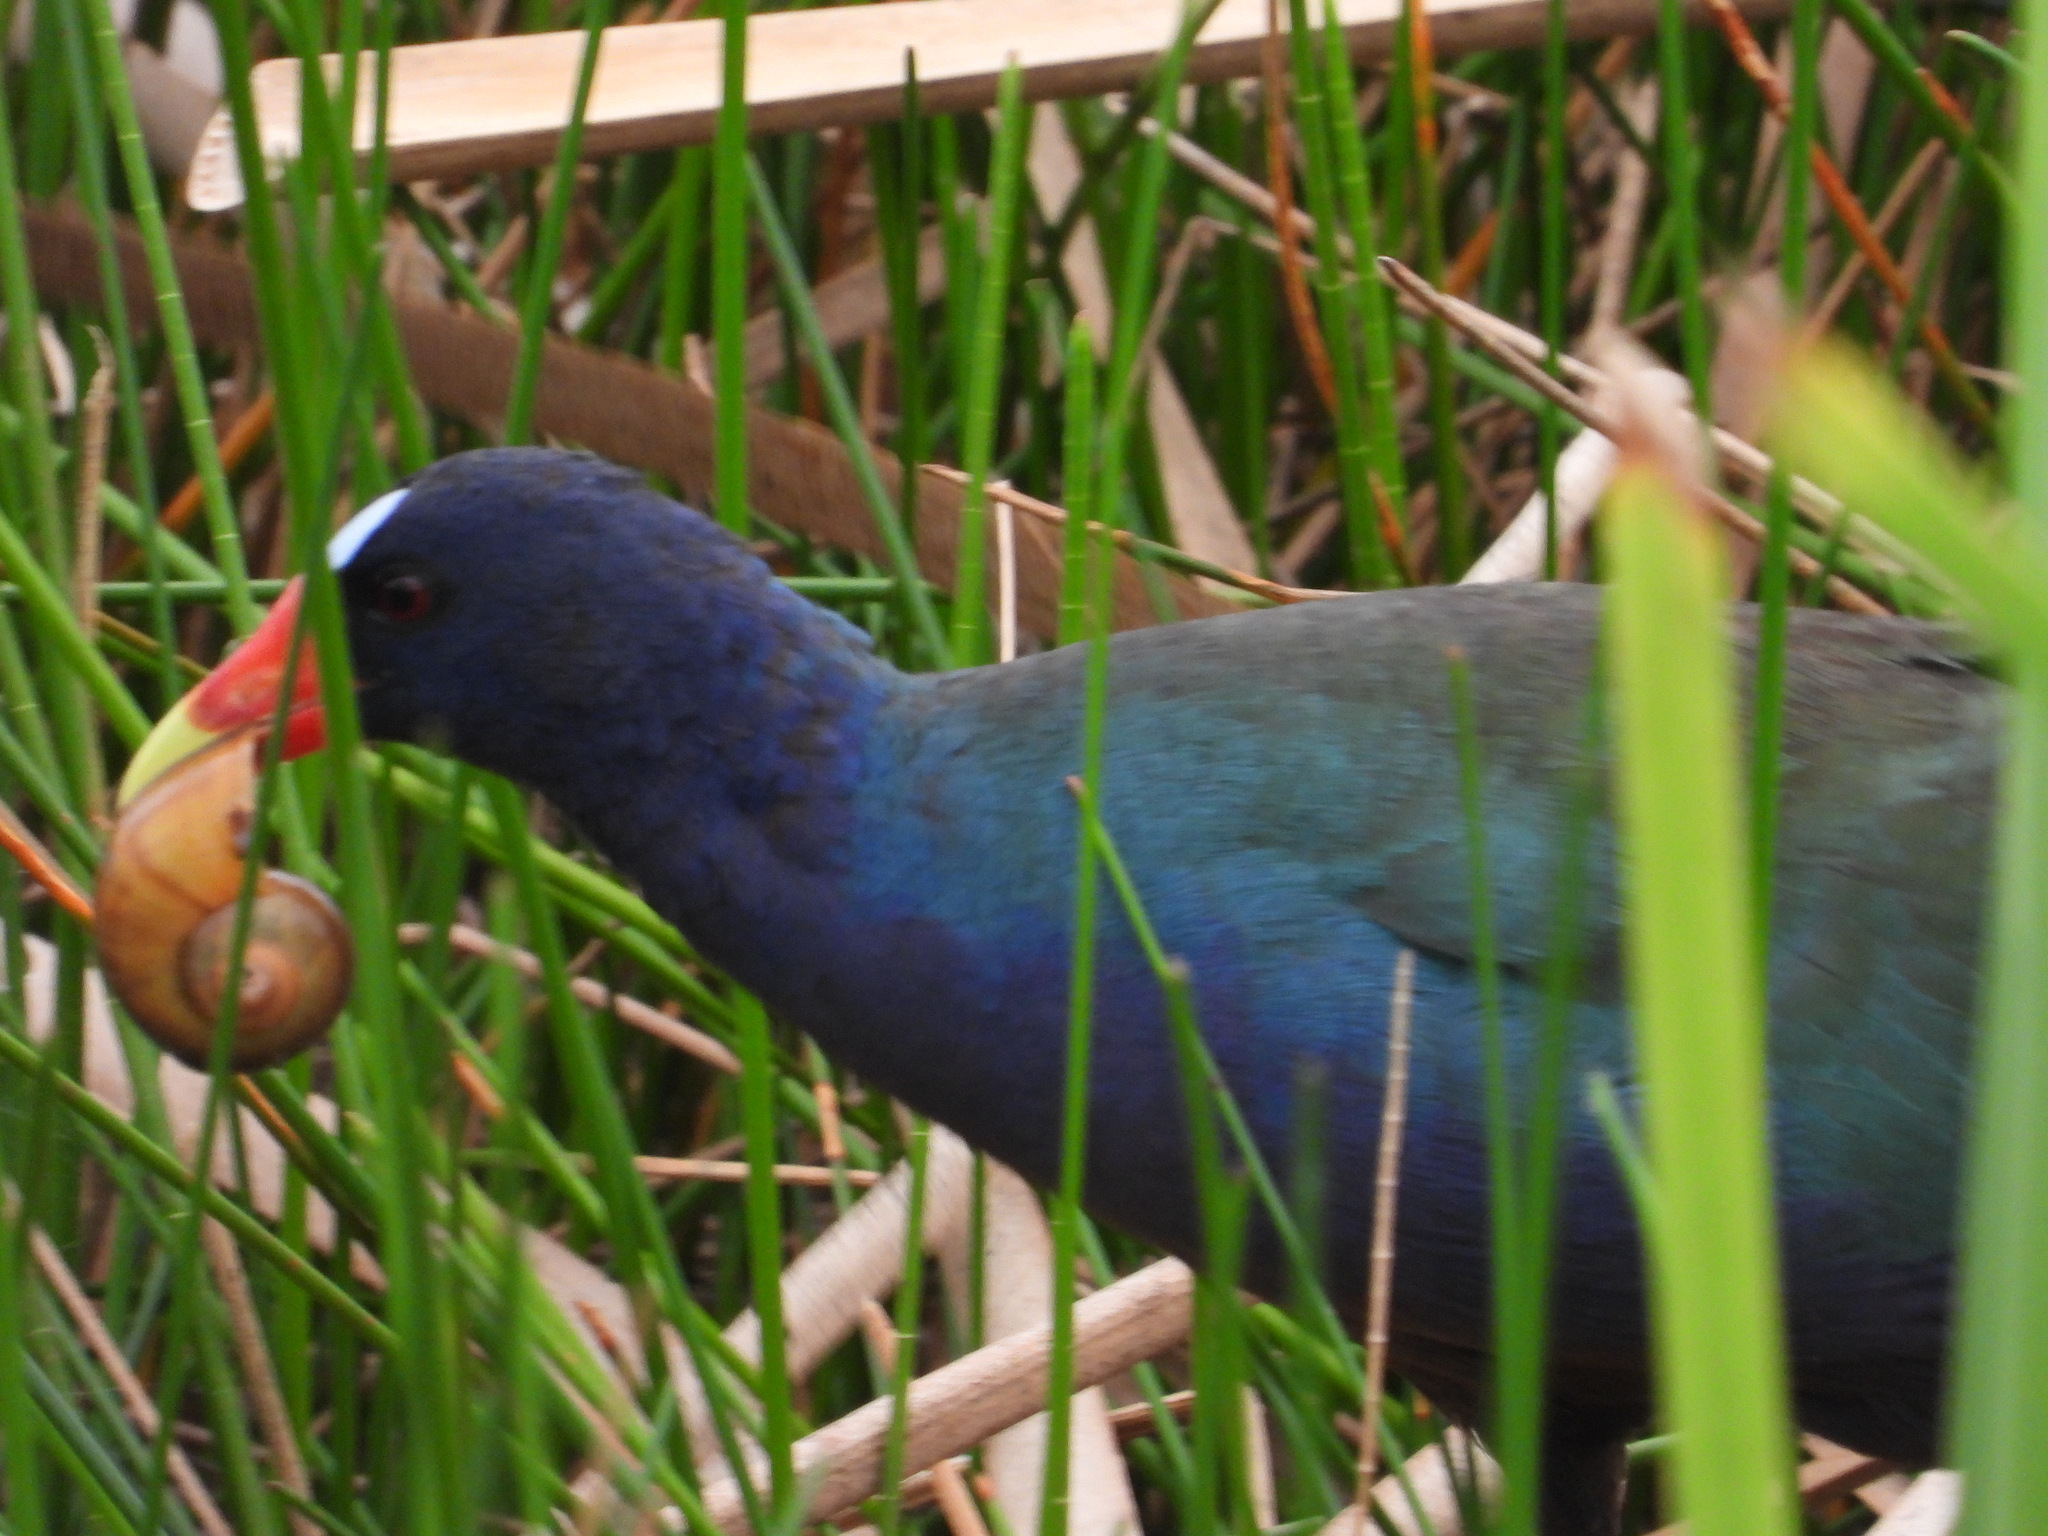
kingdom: Animalia
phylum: Chordata
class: Aves
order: Gruiformes
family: Rallidae
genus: Porphyrio
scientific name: Porphyrio martinica
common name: Purple gallinule
